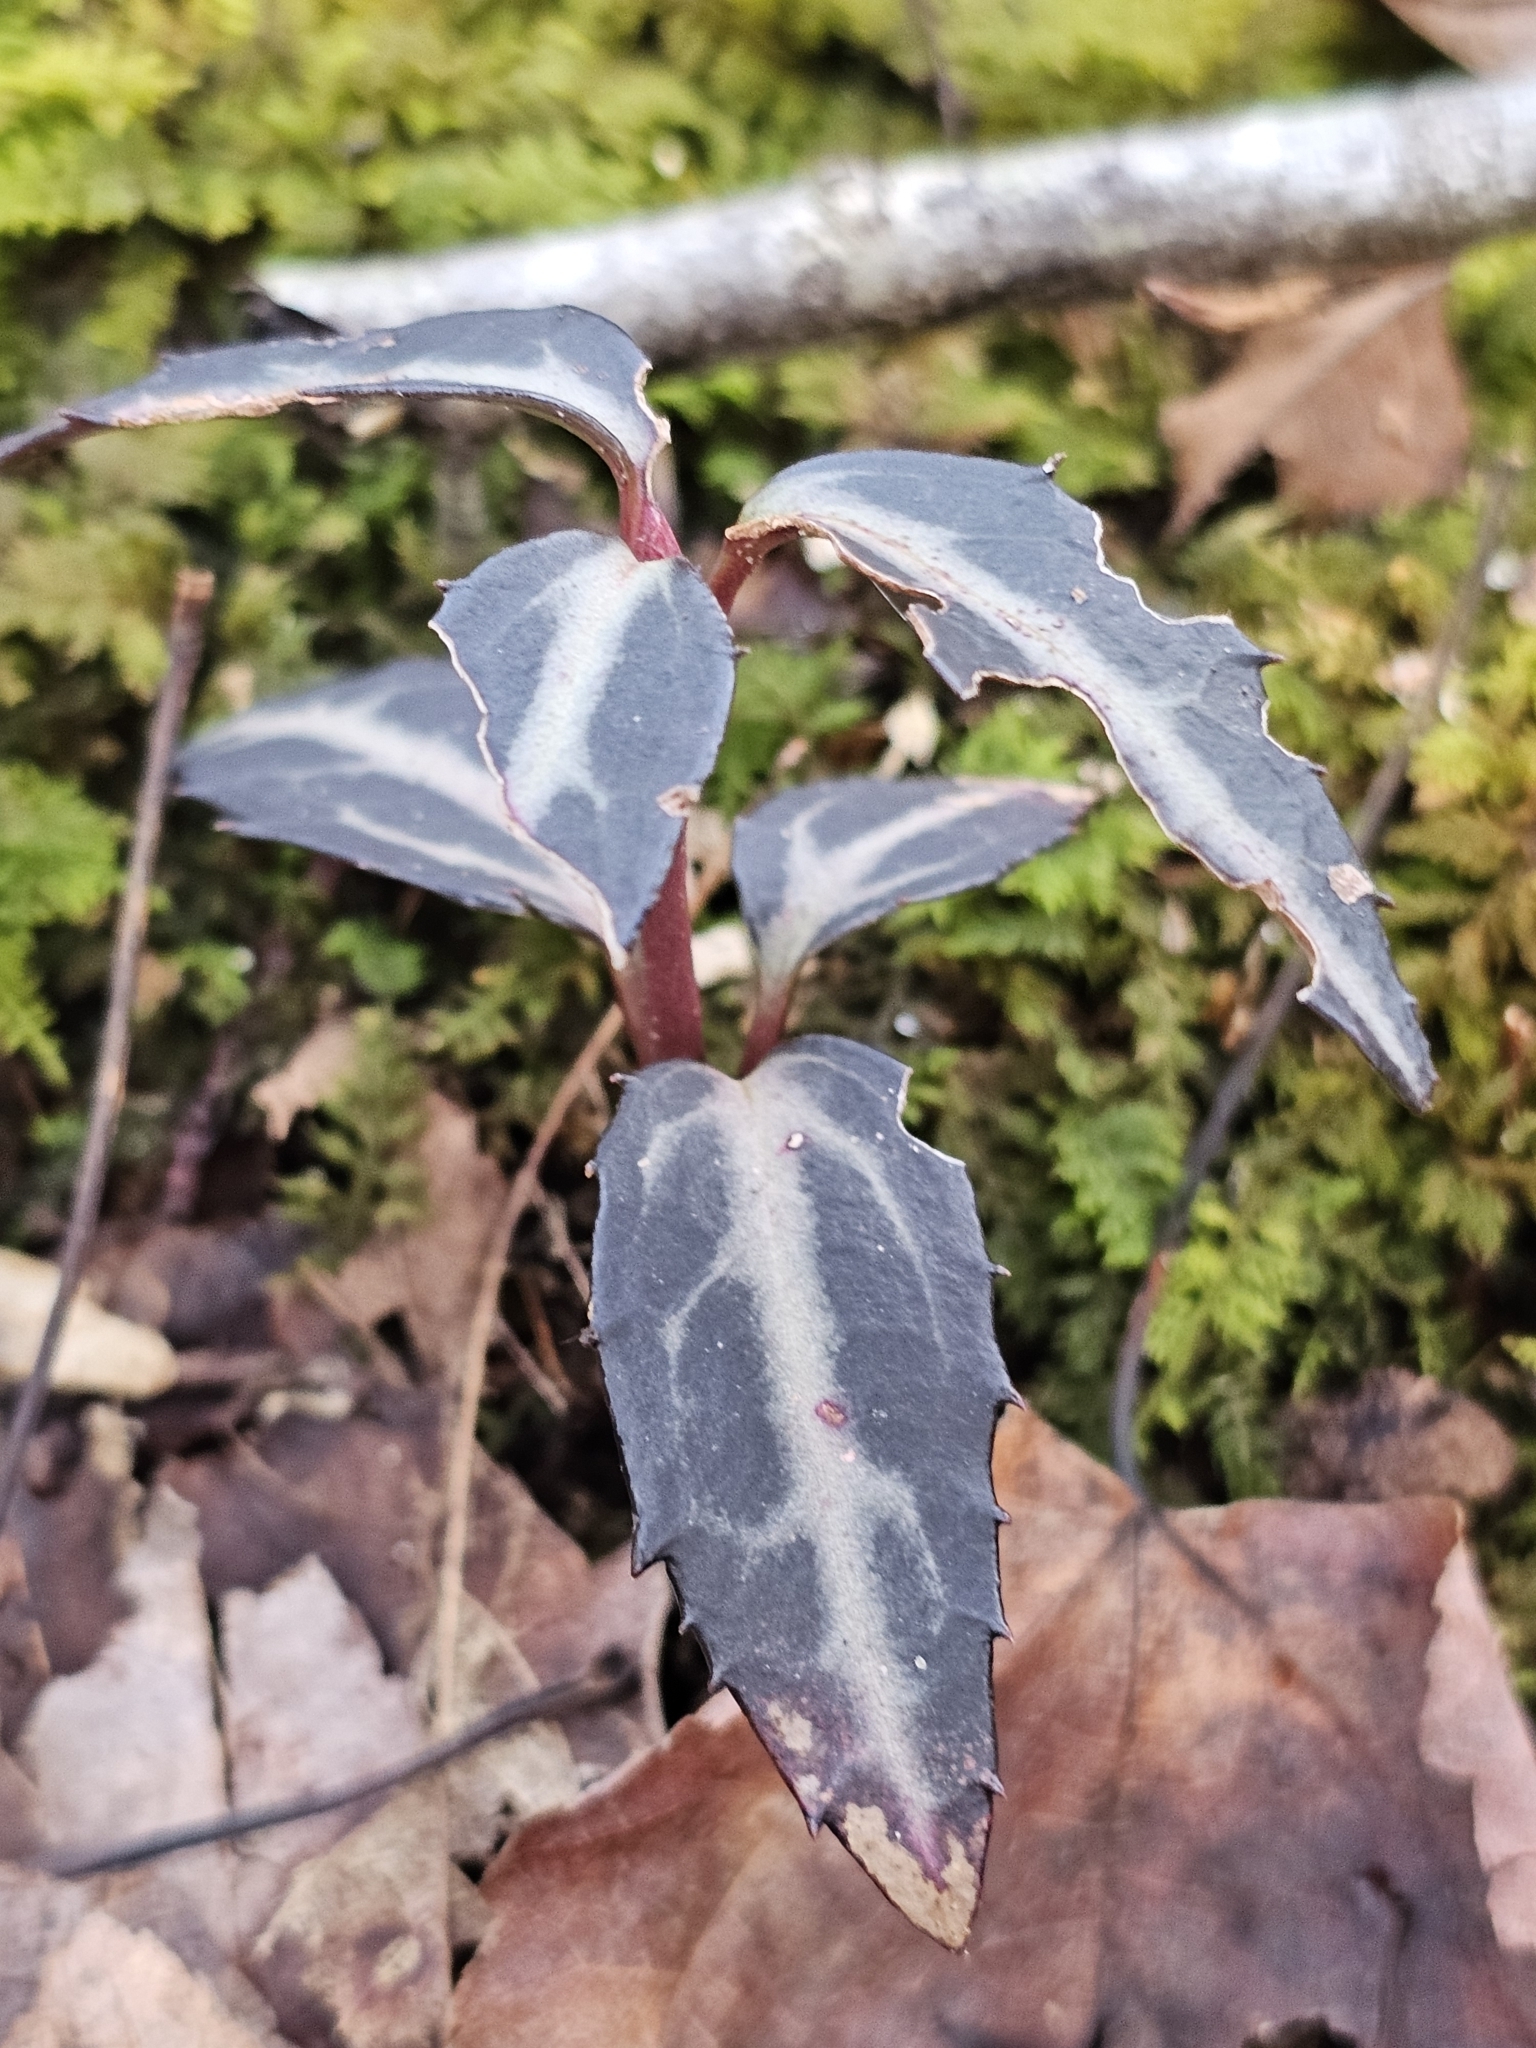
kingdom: Plantae
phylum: Tracheophyta
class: Magnoliopsida
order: Ericales
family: Ericaceae
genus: Chimaphila
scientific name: Chimaphila maculata
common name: Spotted pipsissewa
